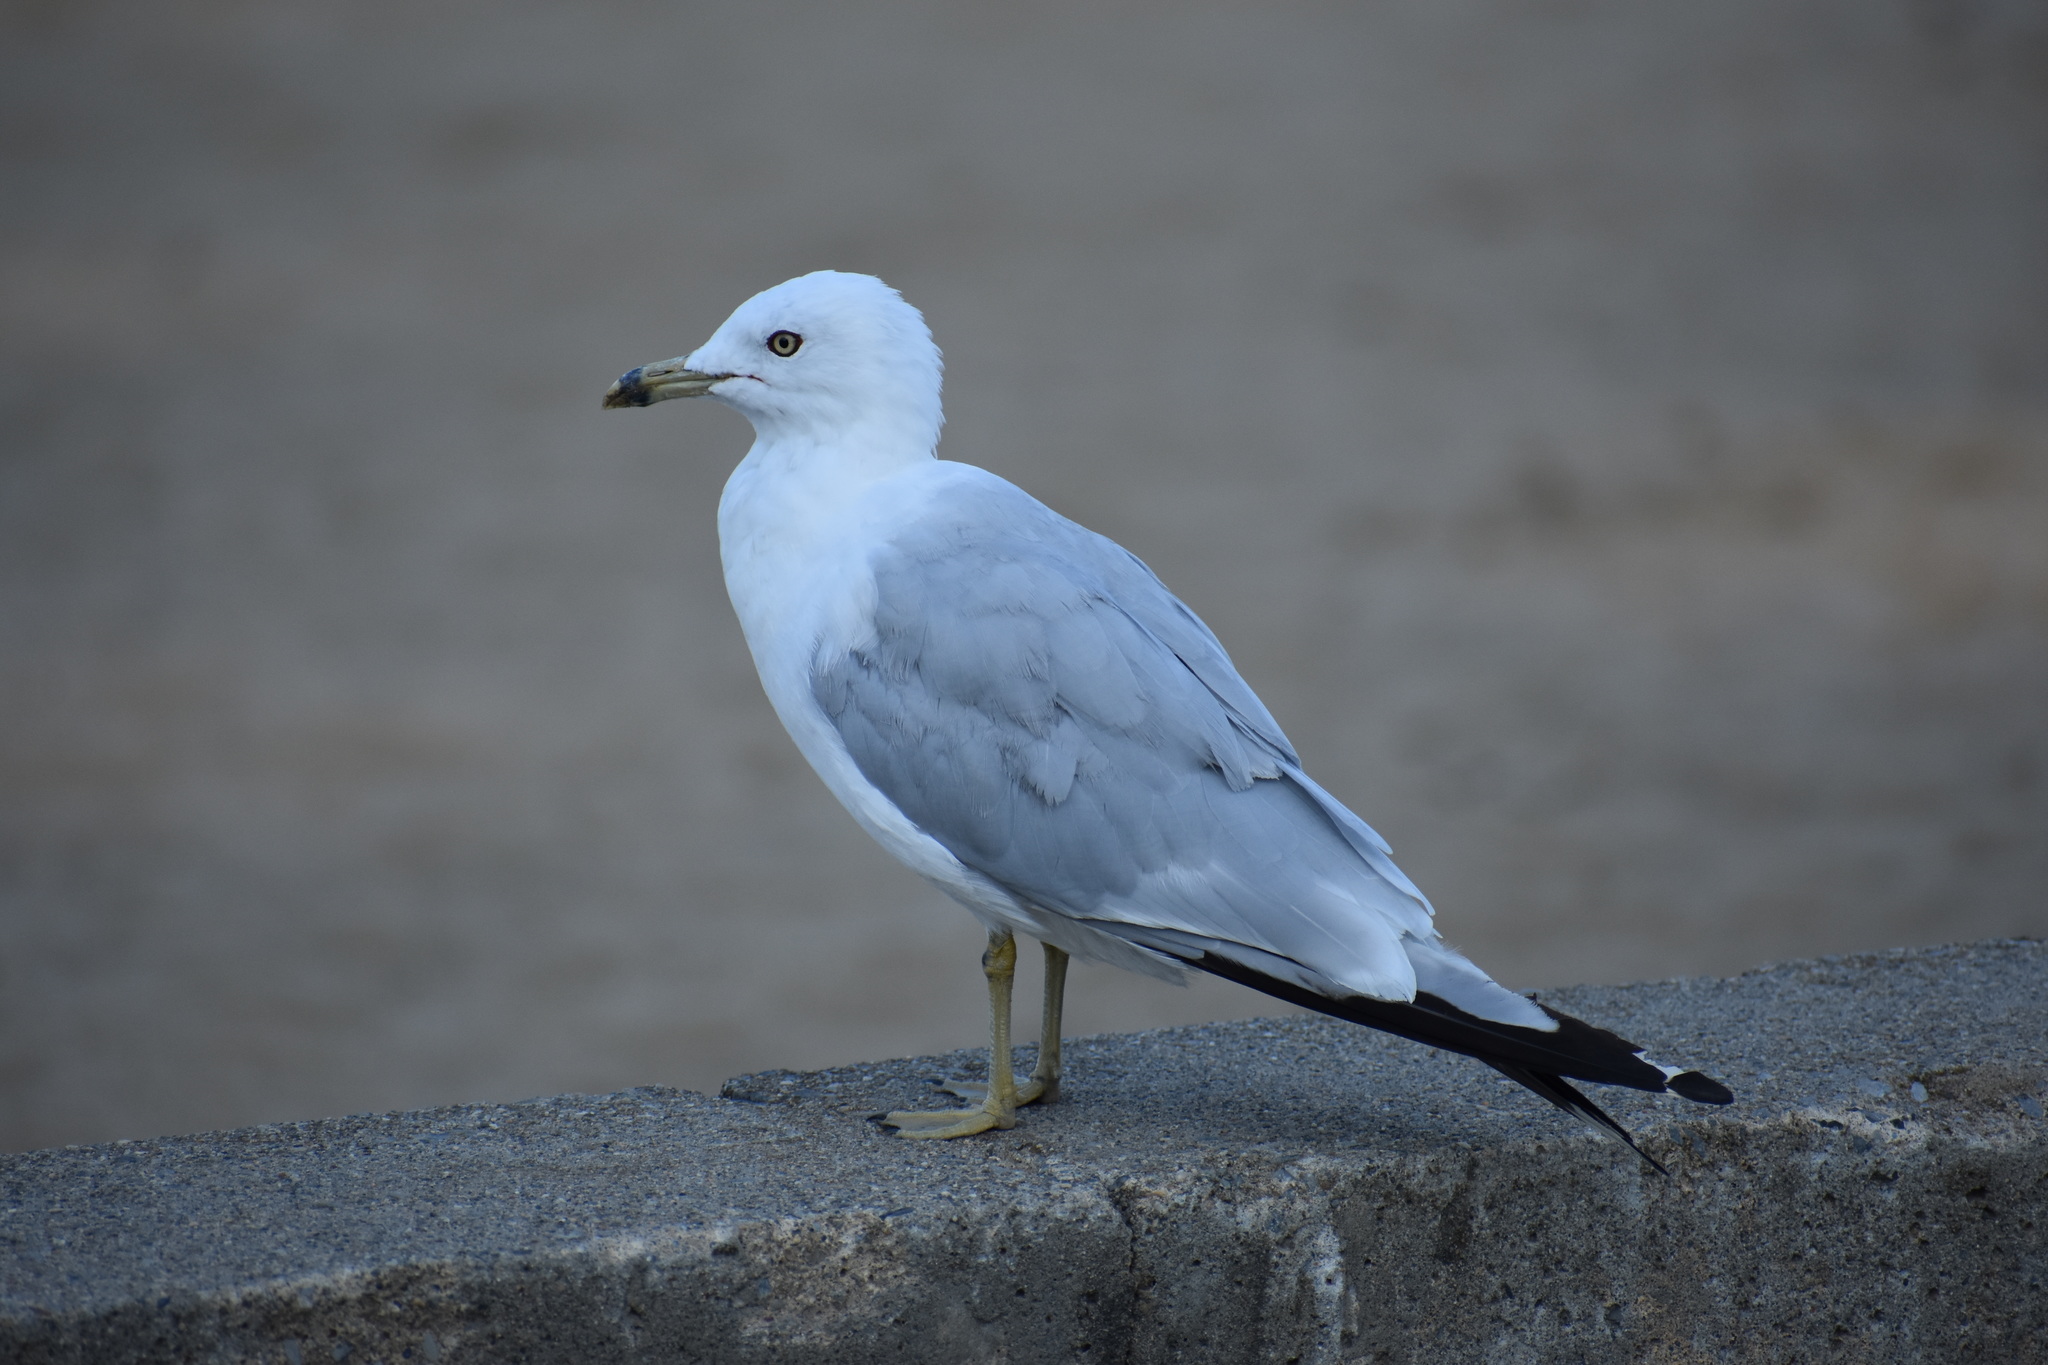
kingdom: Animalia
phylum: Chordata
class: Aves
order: Charadriiformes
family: Laridae
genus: Larus
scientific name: Larus delawarensis
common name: Ring-billed gull
